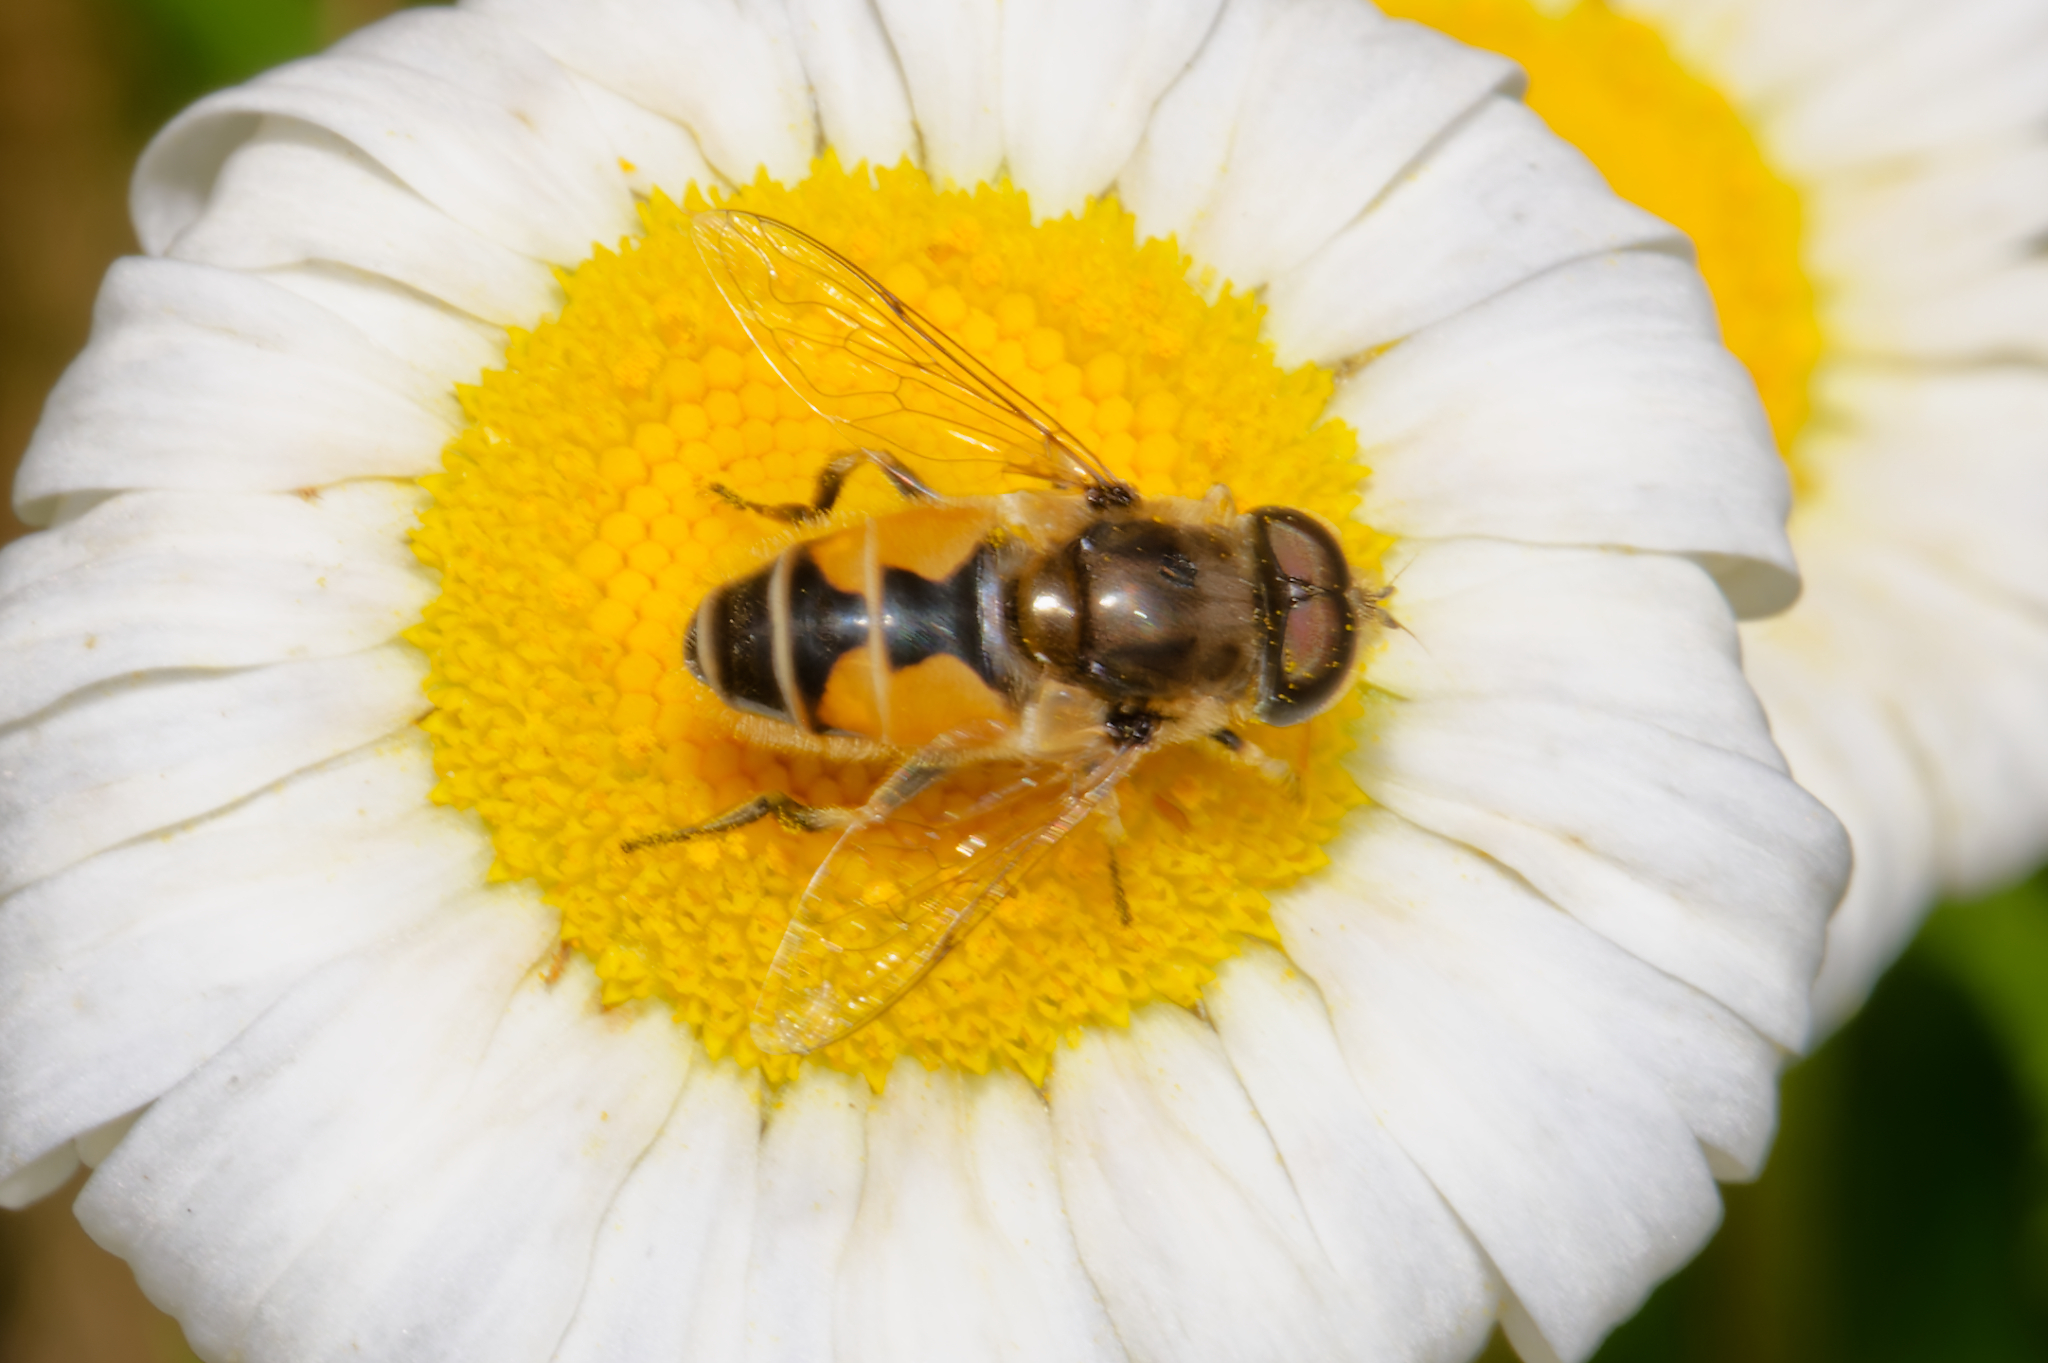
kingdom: Animalia
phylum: Arthropoda
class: Insecta
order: Diptera
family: Syrphidae
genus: Eristalis
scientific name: Eristalis arbustorum
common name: Hover fly
